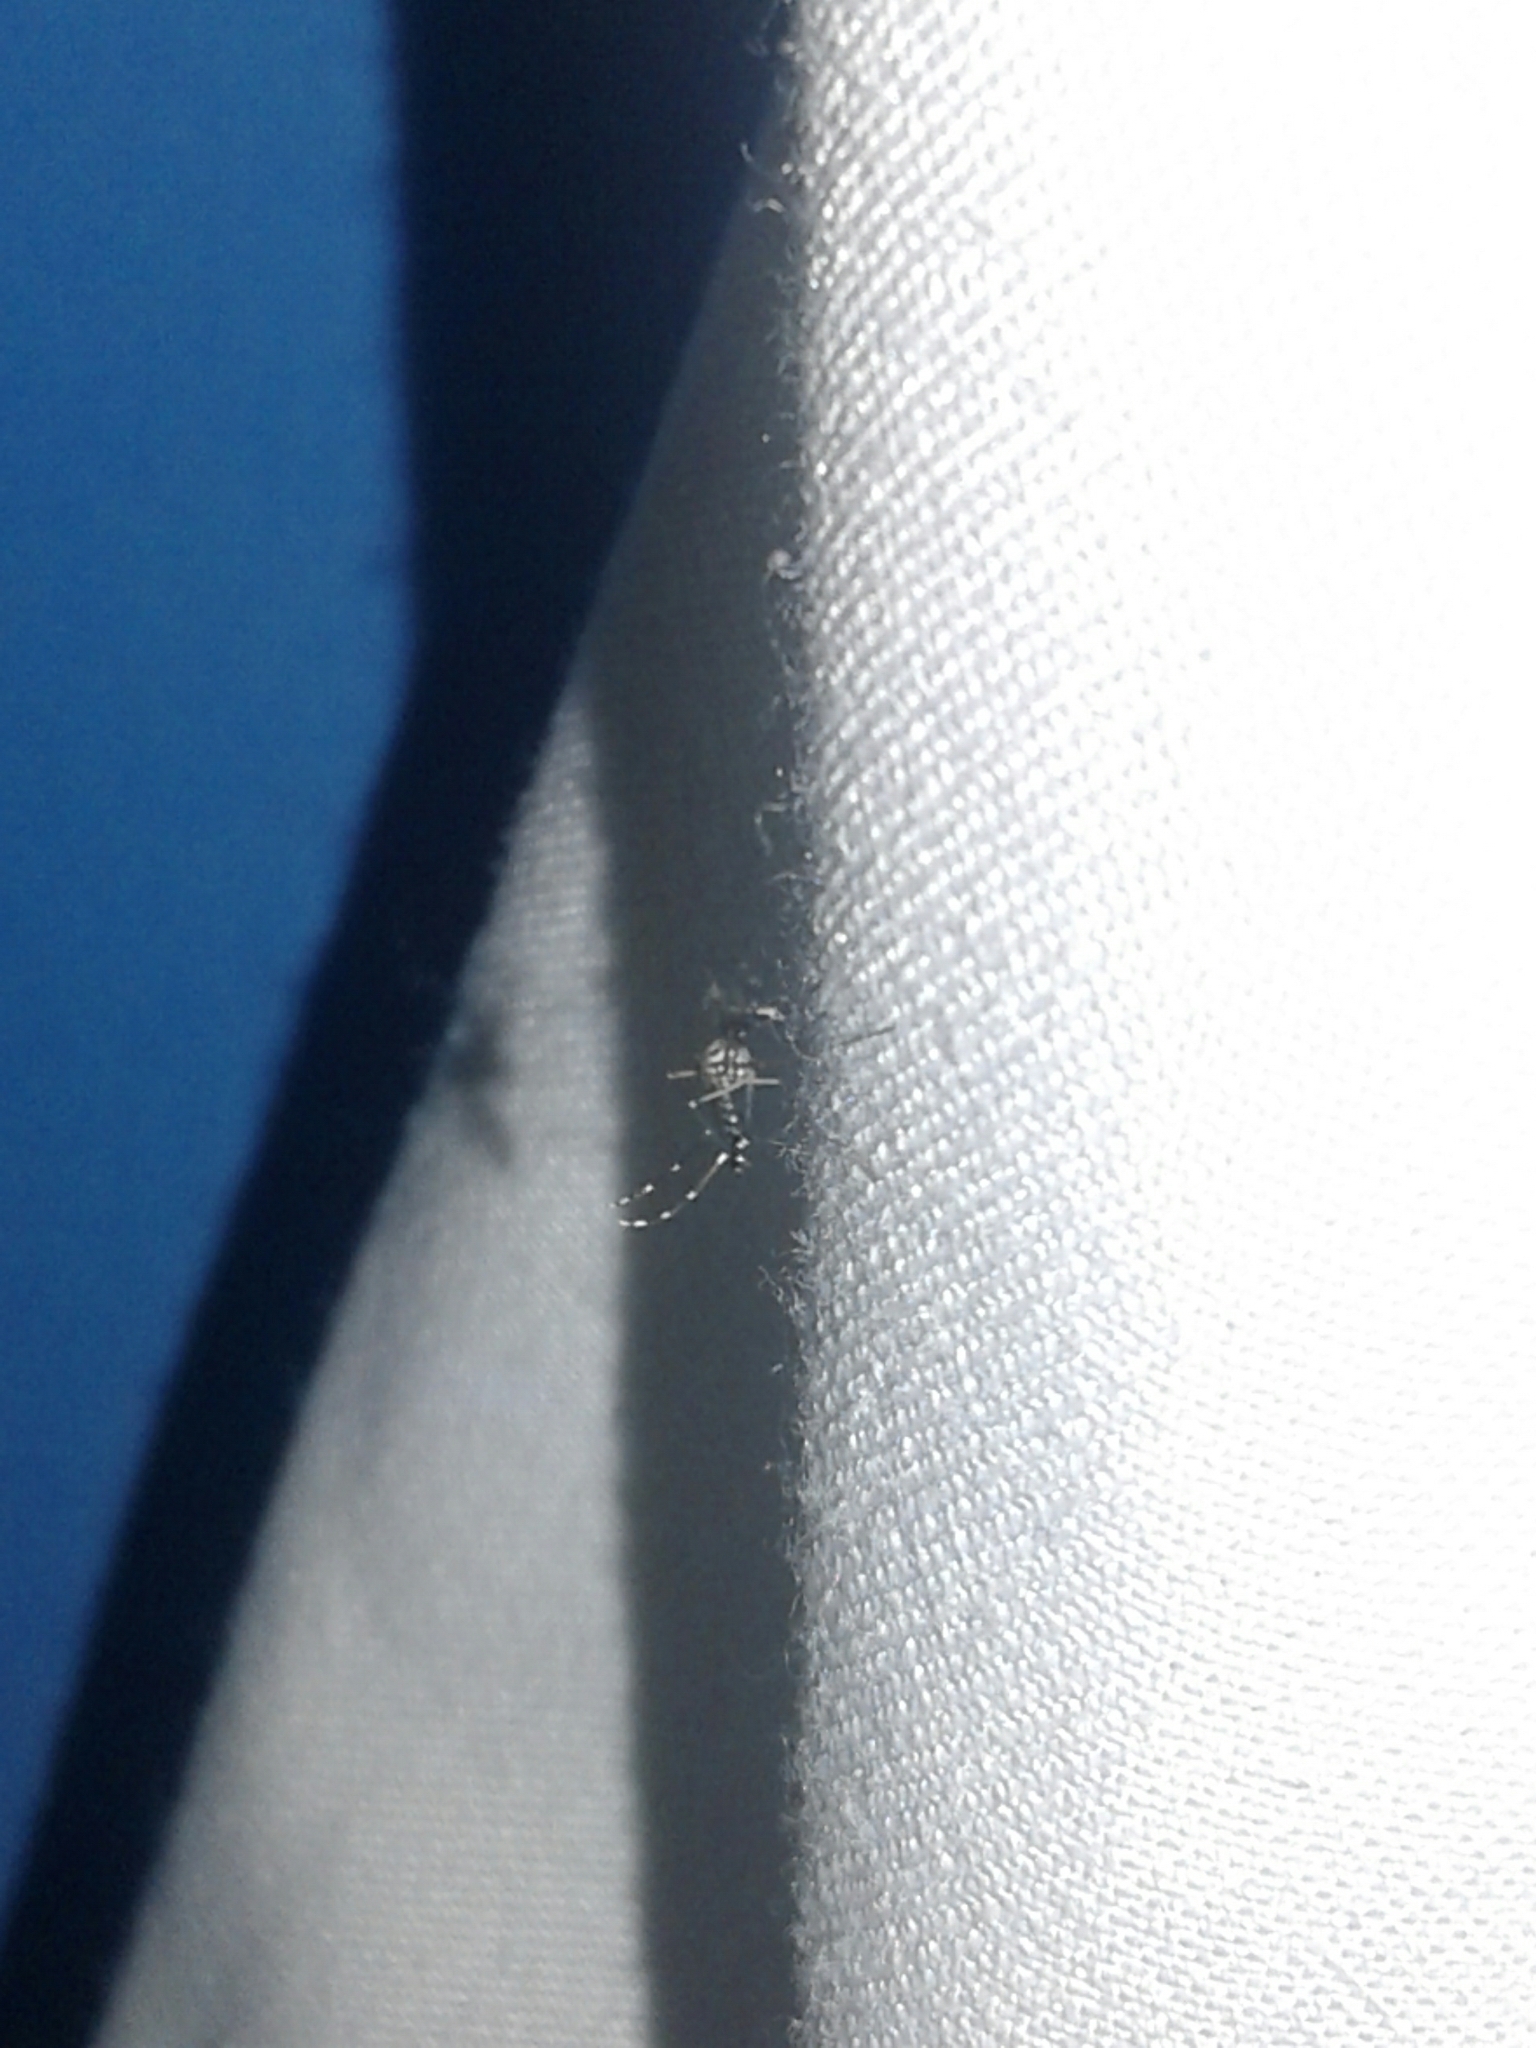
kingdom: Animalia
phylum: Arthropoda
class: Insecta
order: Diptera
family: Culicidae
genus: Aedes
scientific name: Aedes aegypti
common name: Yellow fever mosquito
